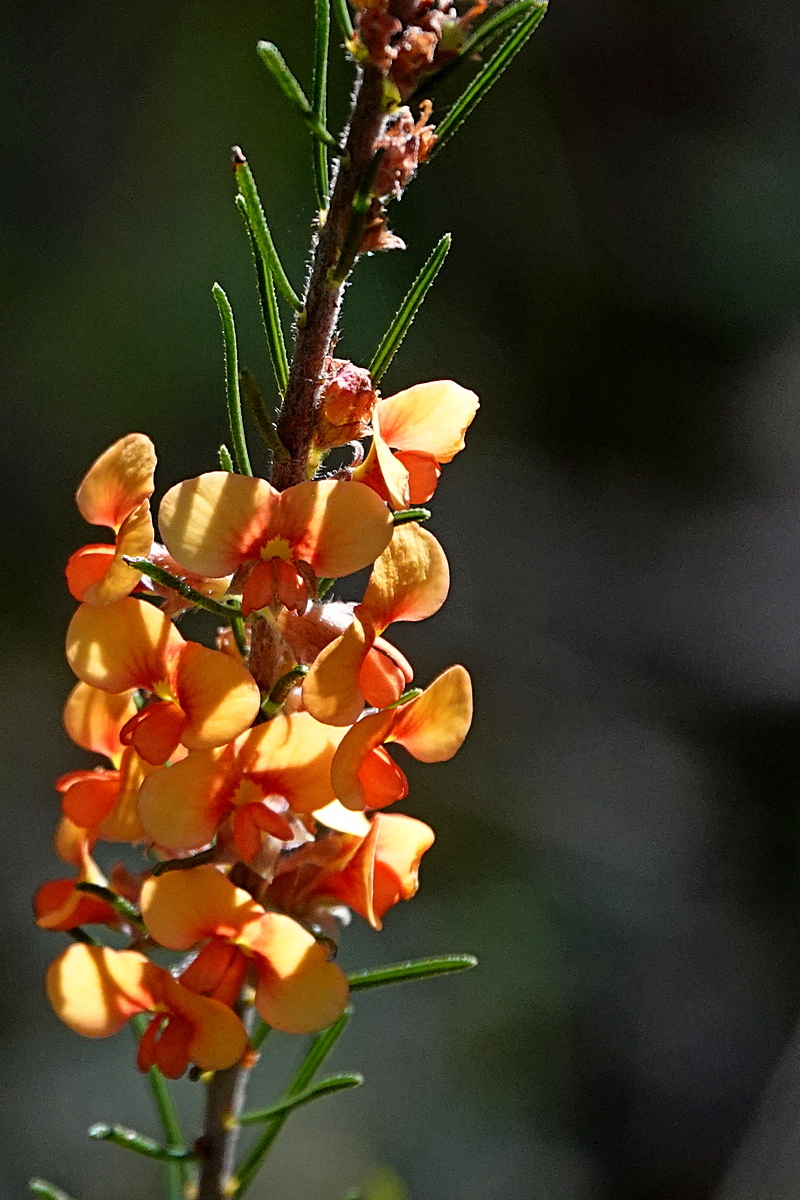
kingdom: Plantae
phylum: Tracheophyta
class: Magnoliopsida
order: Fabales
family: Fabaceae
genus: Dillwynia
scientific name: Dillwynia sericea
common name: Showy parrot-pea
